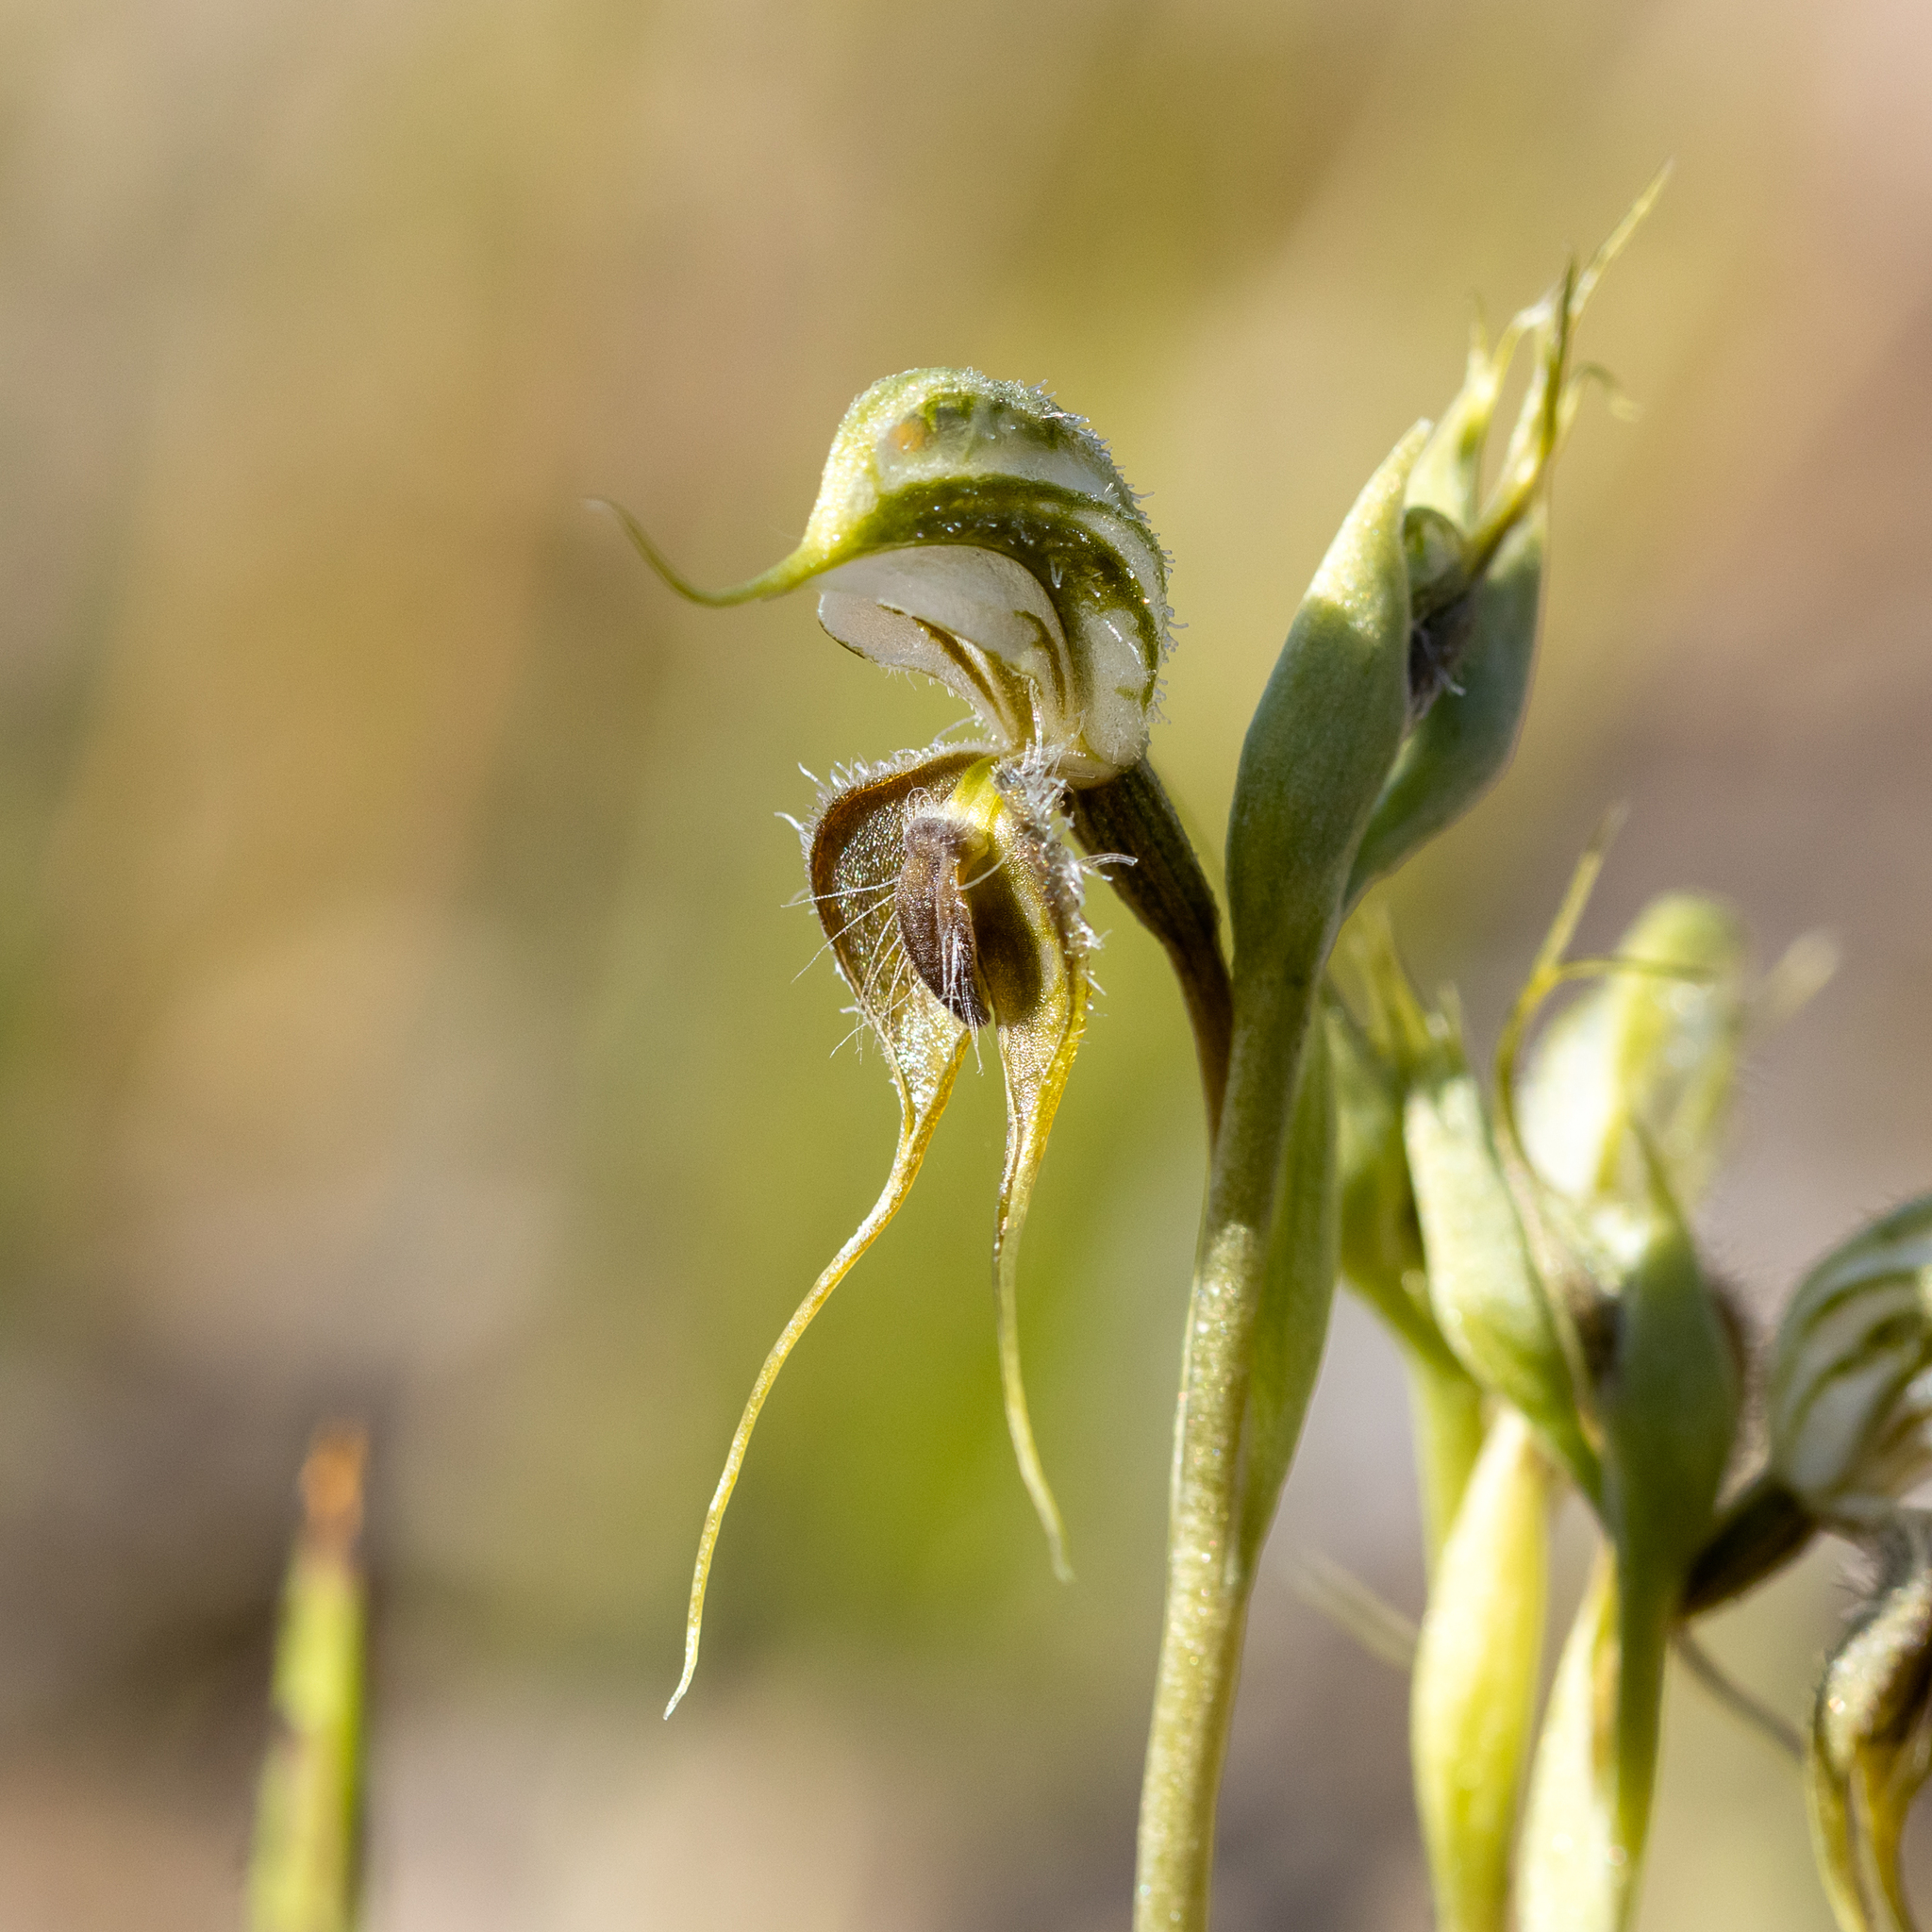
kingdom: Plantae
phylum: Tracheophyta
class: Liliopsida
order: Asparagales
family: Orchidaceae
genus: Pterostylis
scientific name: Pterostylis ciliata
